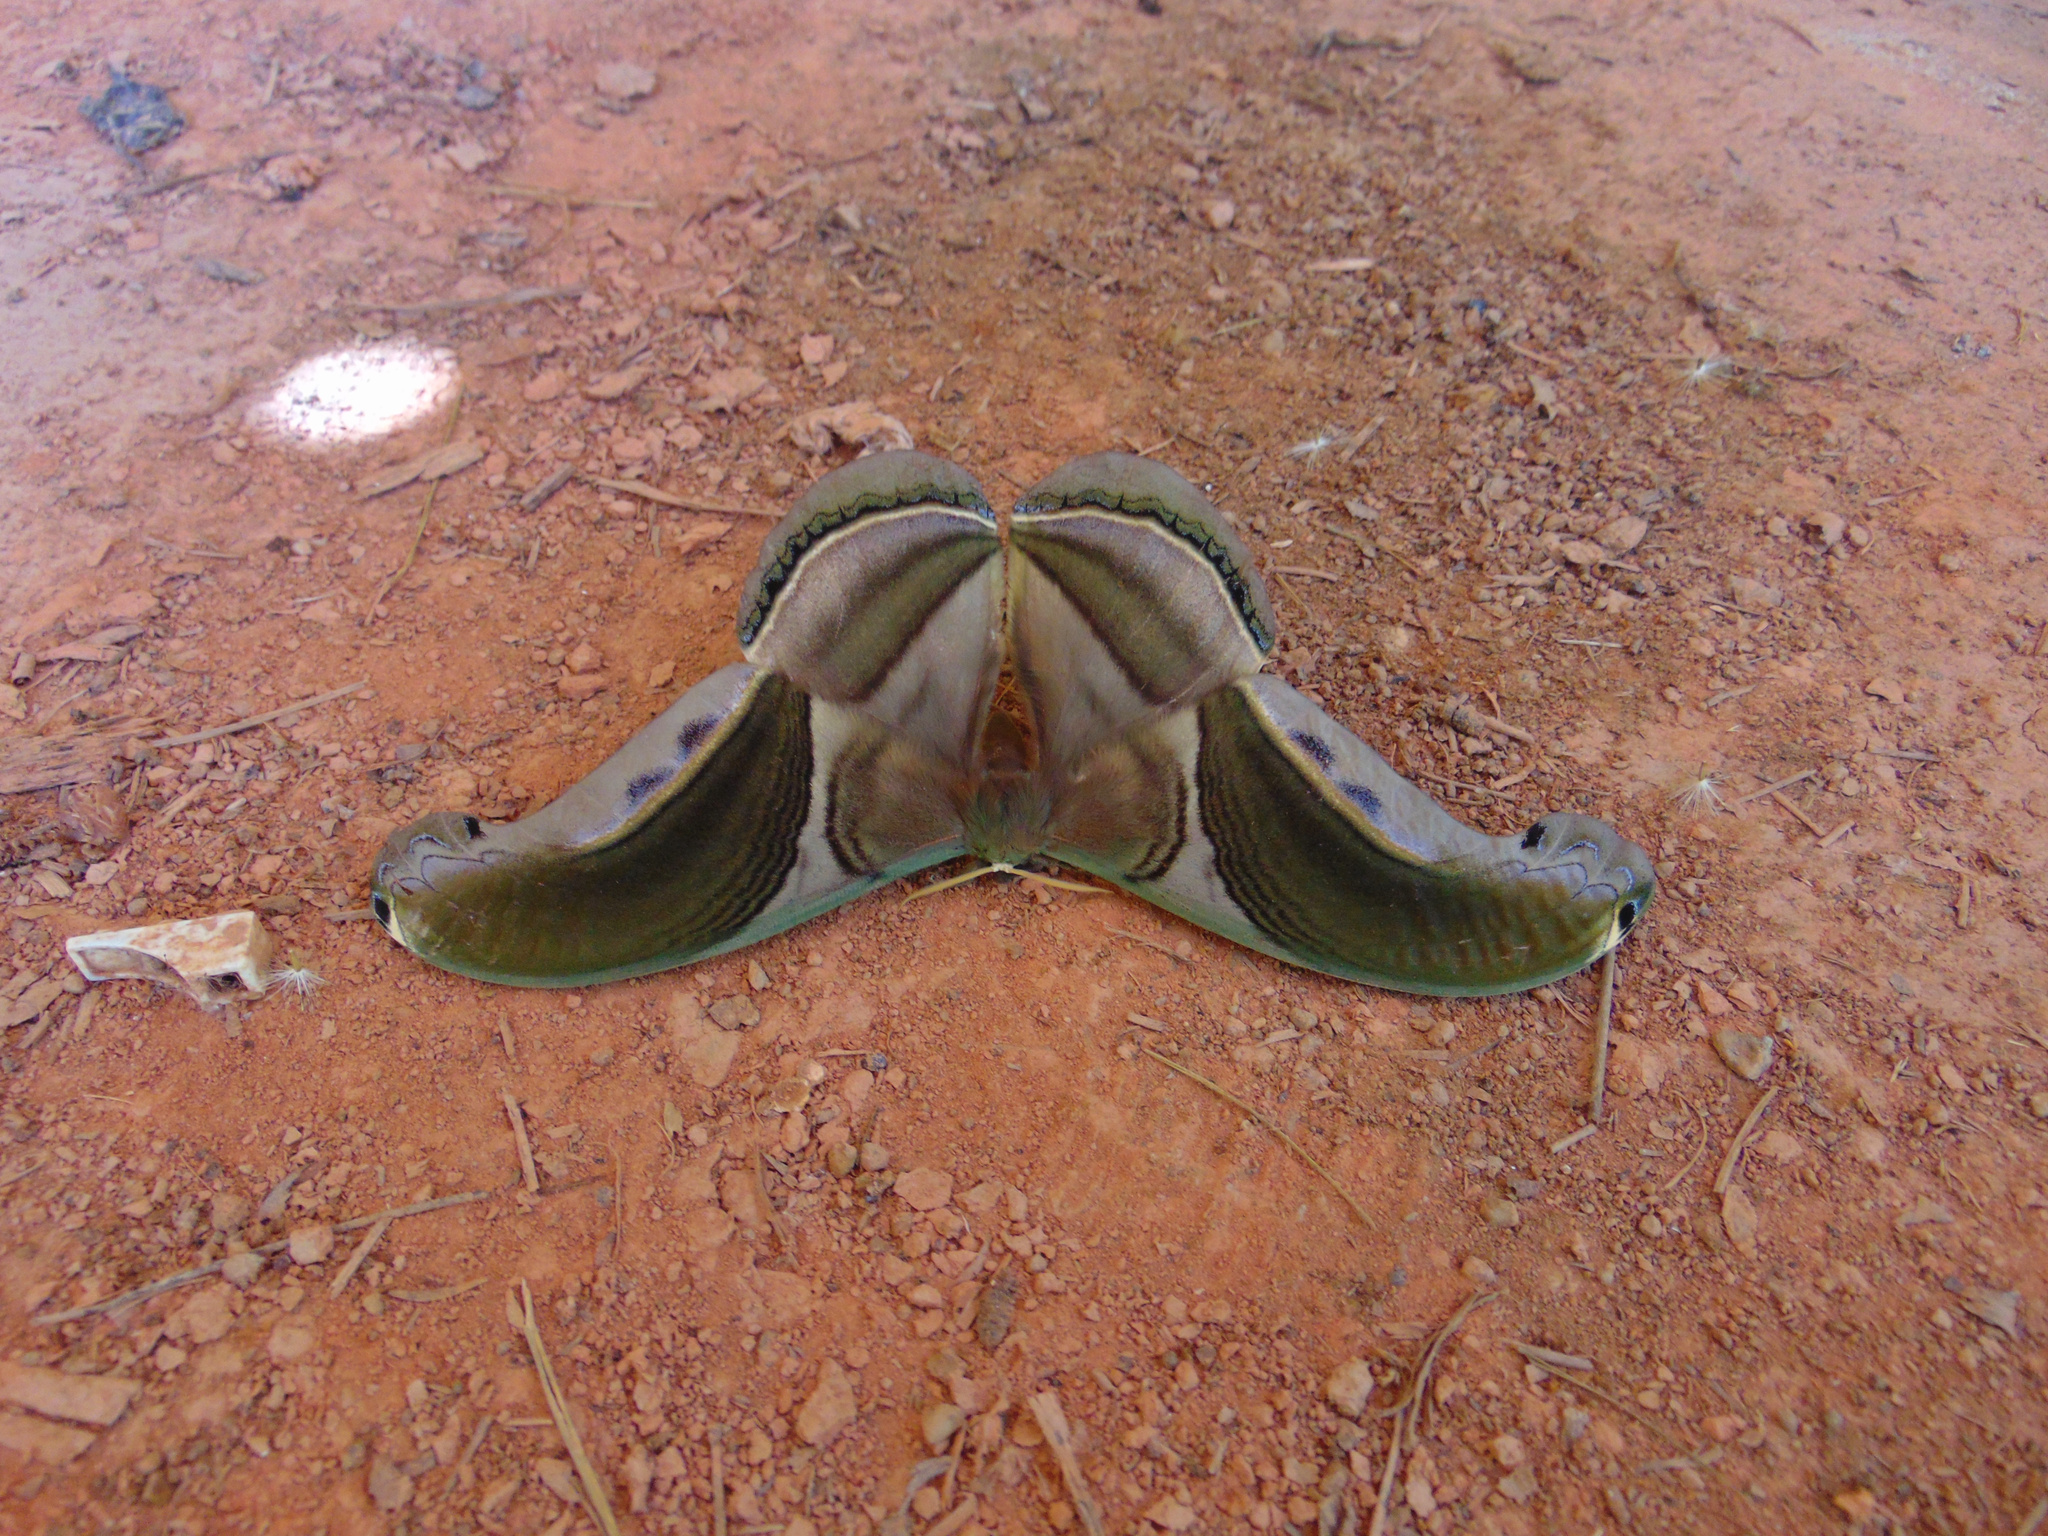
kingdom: Animalia
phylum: Arthropoda
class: Insecta
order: Lepidoptera
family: Saturniidae
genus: Rhescyntis
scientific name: Rhescyntis pseudomartii
